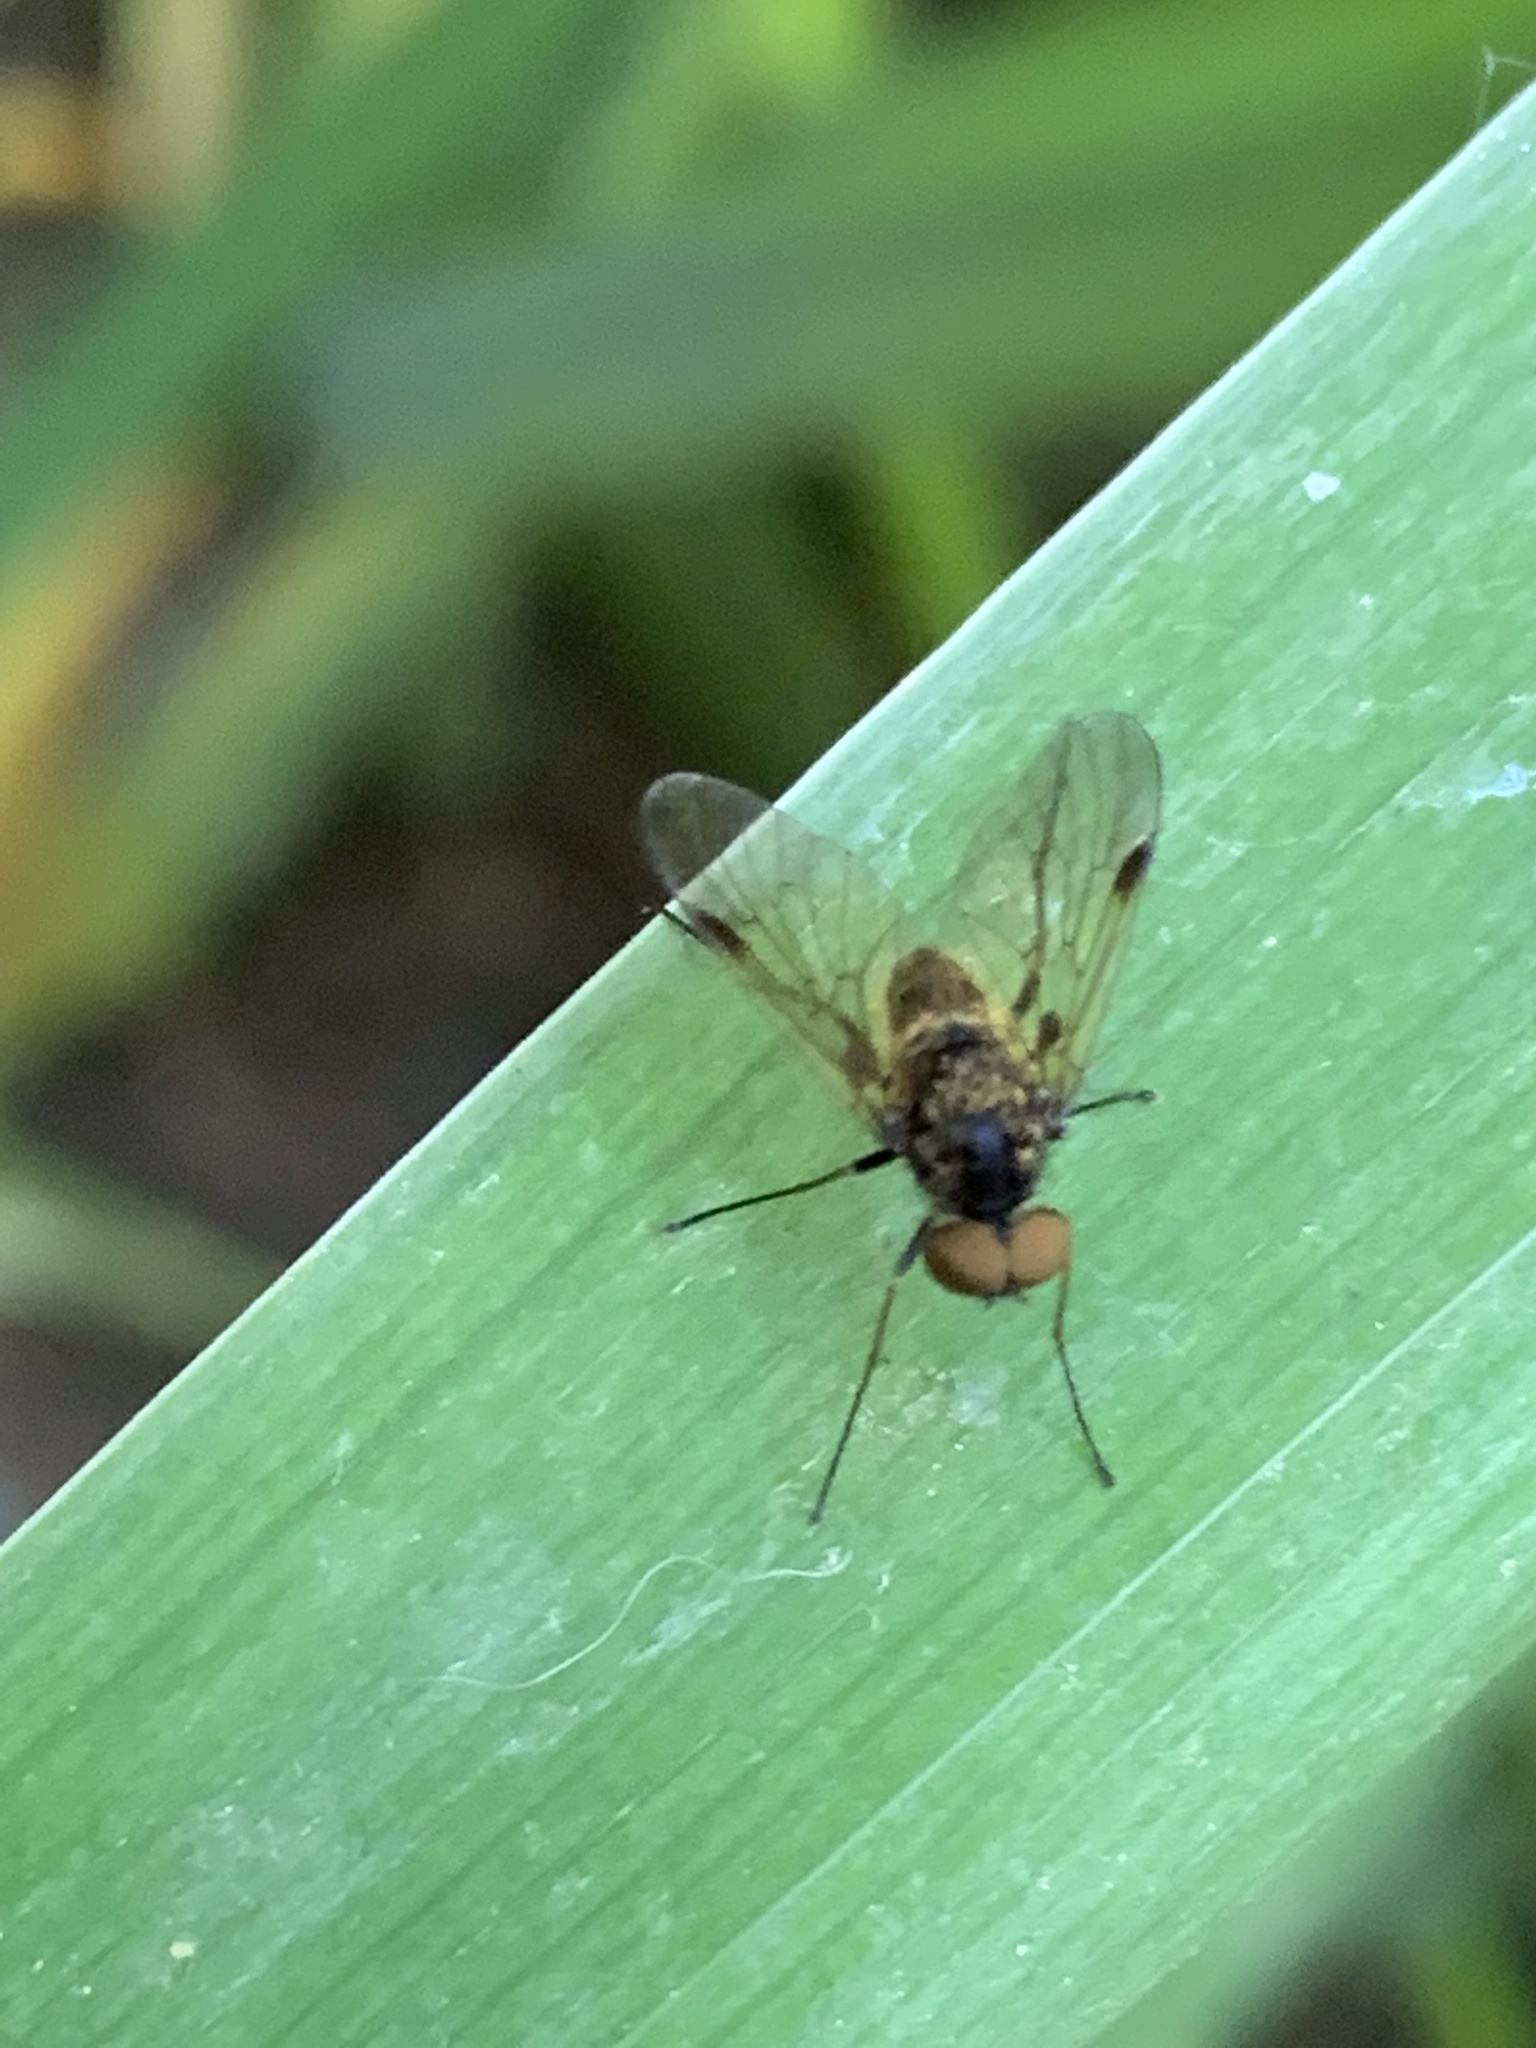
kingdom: Animalia
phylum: Arthropoda
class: Insecta
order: Diptera
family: Rhagionidae
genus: Chrysopilus
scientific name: Chrysopilus cristatus
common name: Black snipefly
